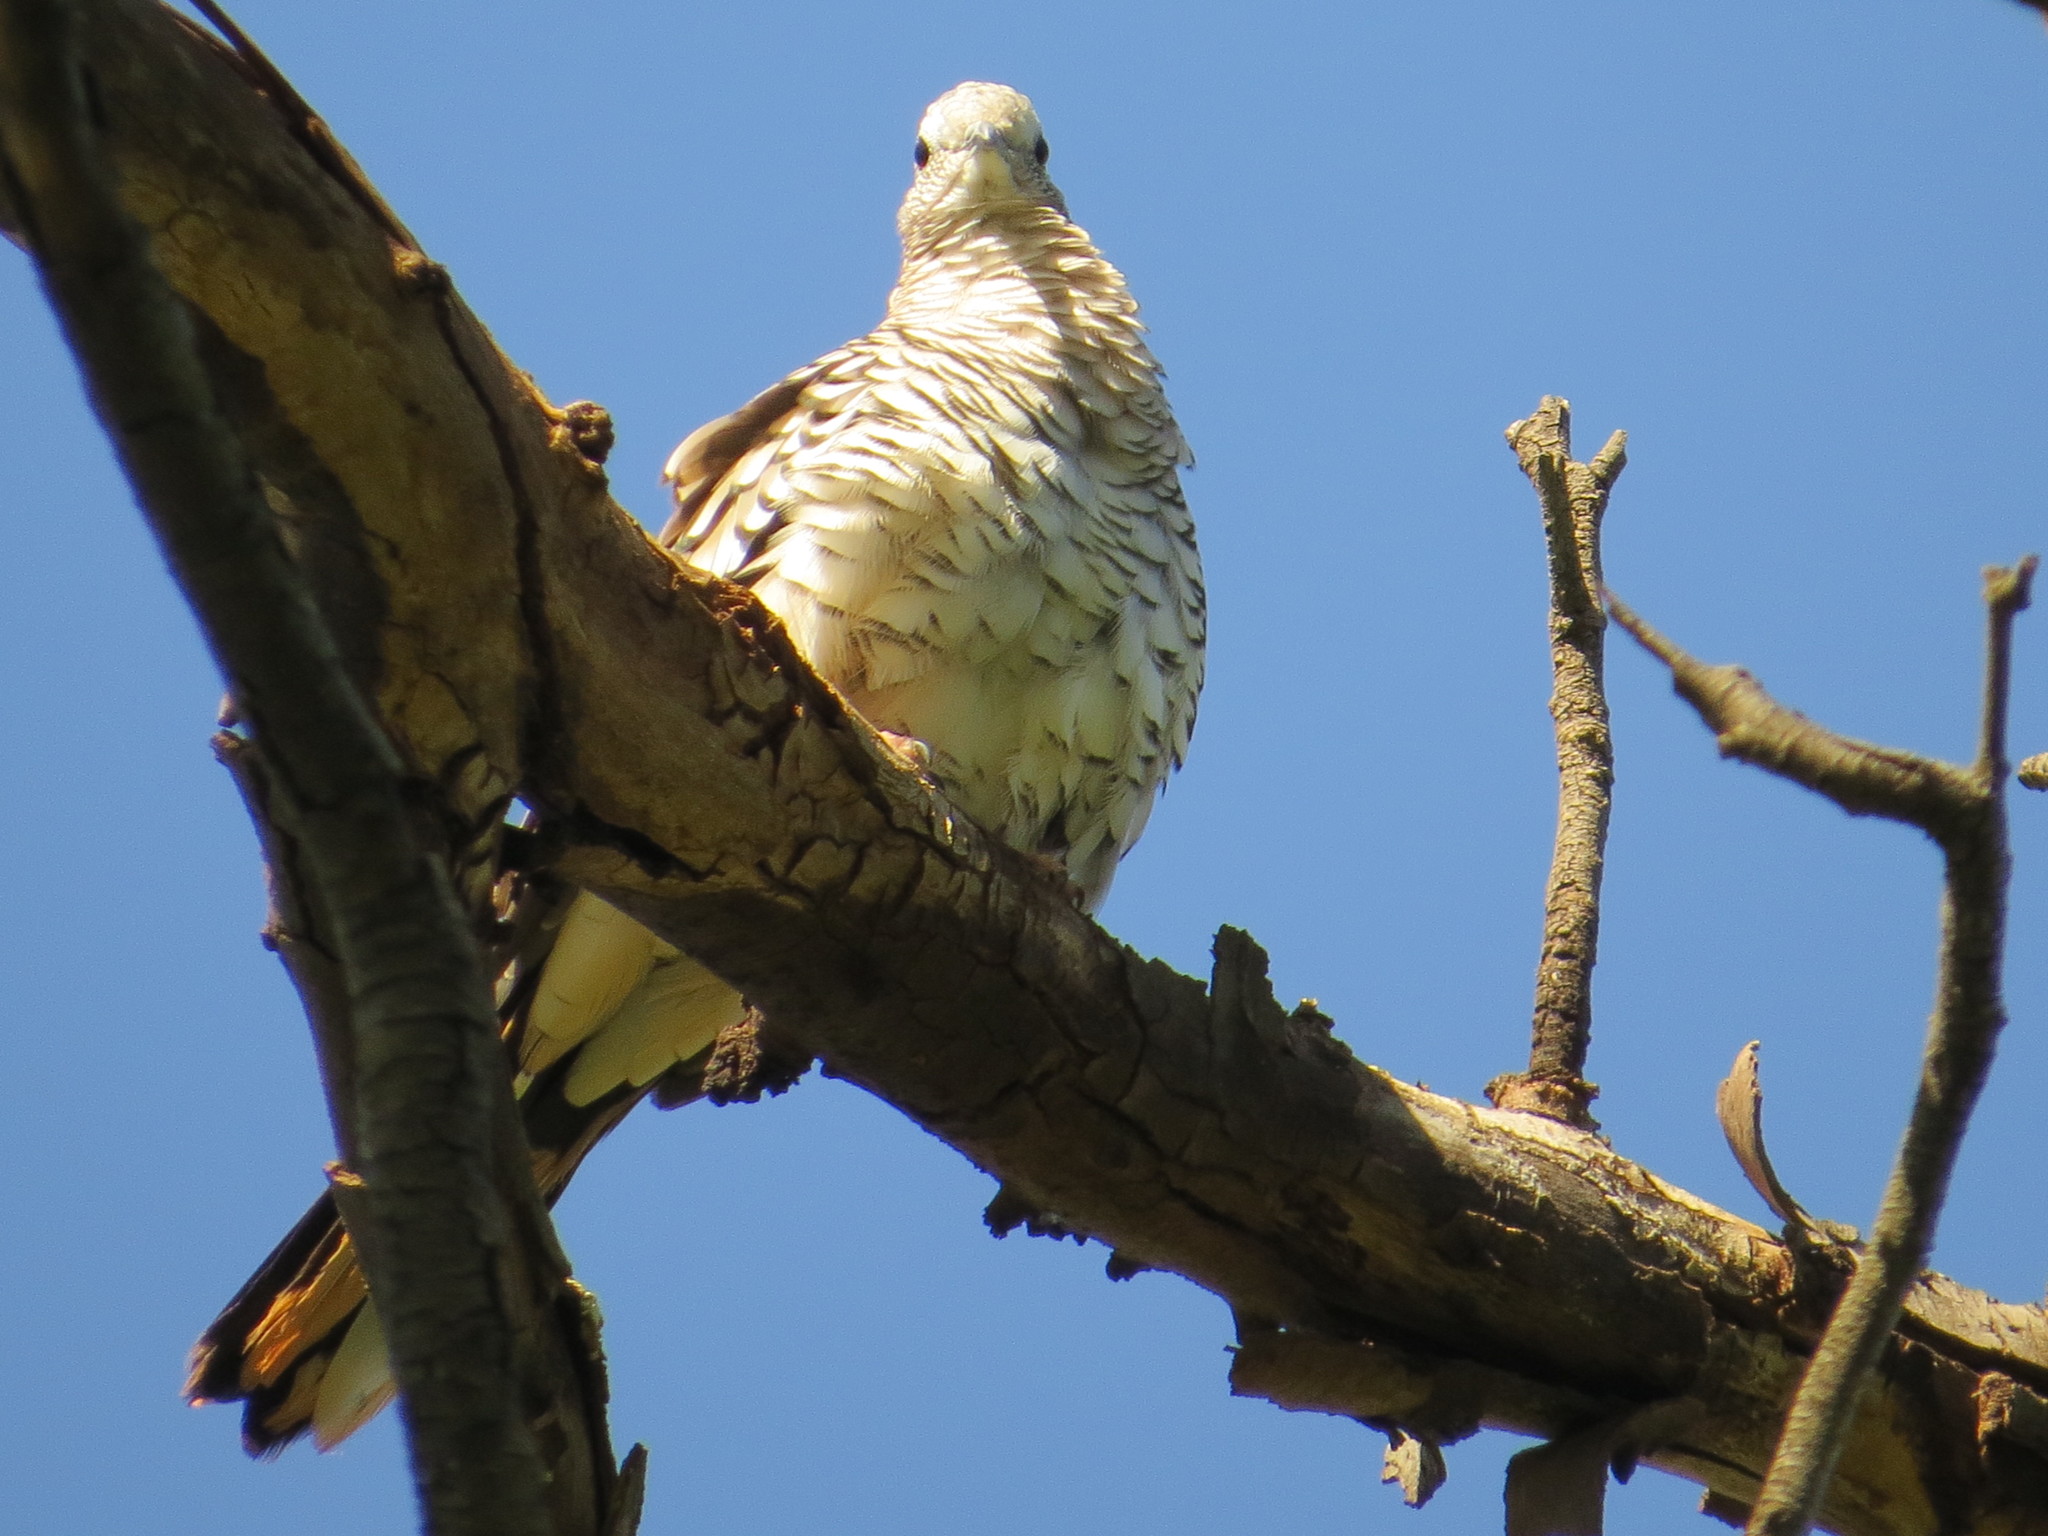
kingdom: Animalia
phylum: Chordata
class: Aves
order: Columbiformes
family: Columbidae
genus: Columbina
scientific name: Columbina squammata
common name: Scaled dove
